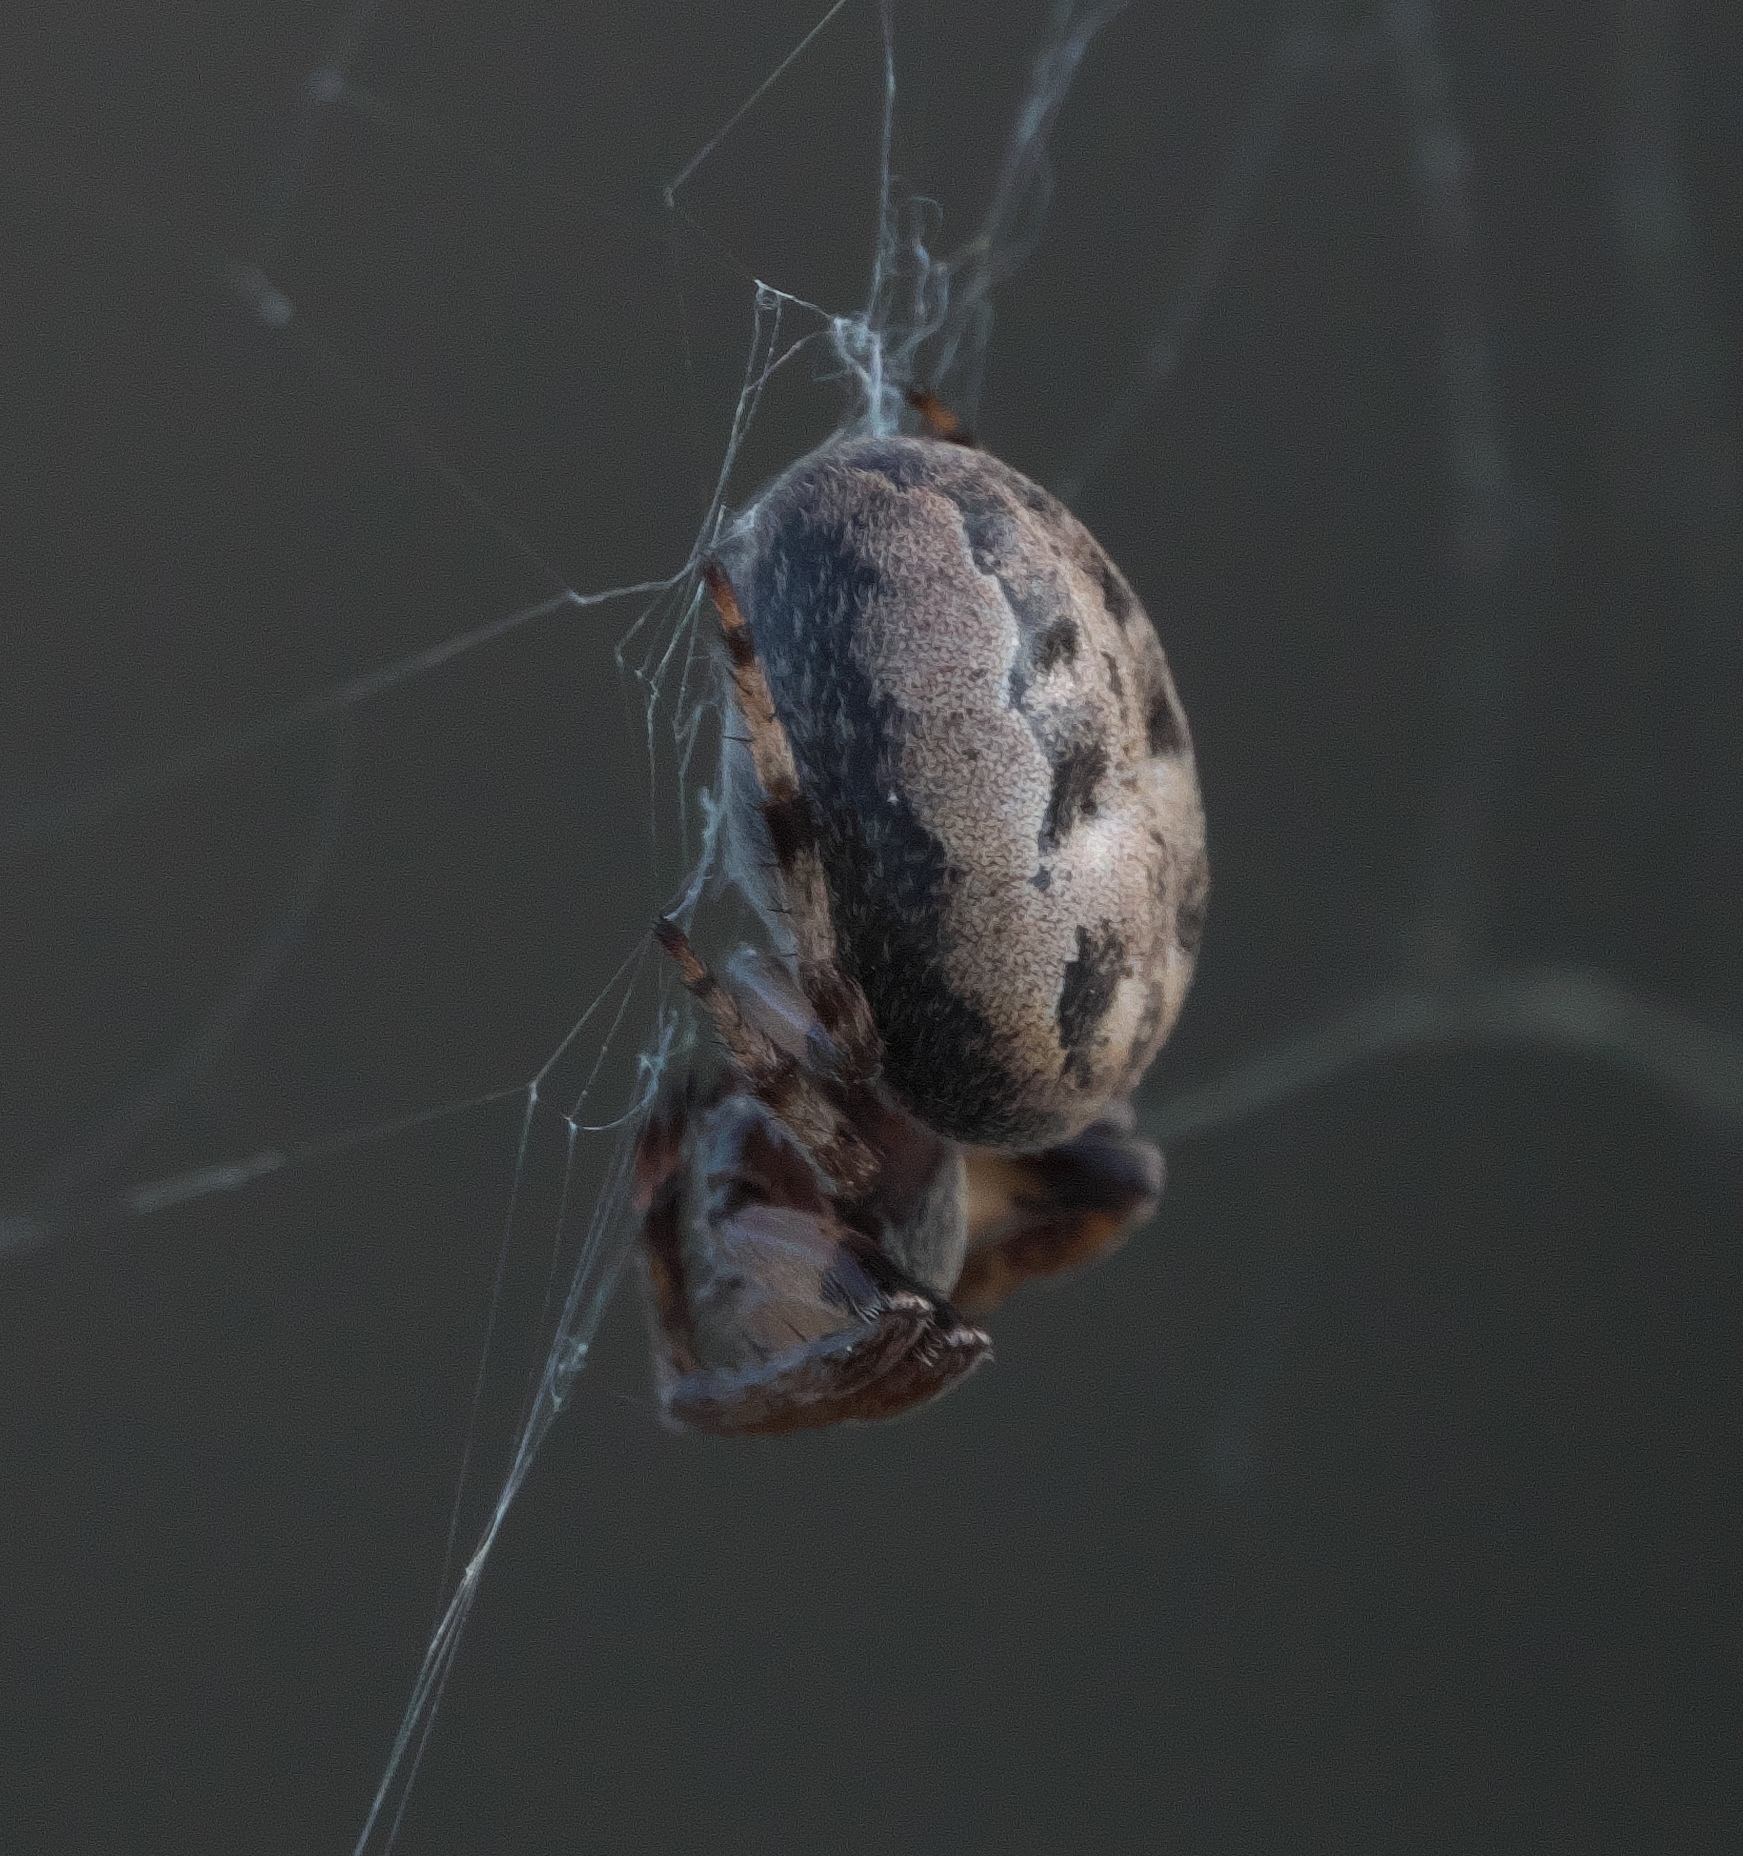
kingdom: Animalia
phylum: Arthropoda
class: Arachnida
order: Araneae
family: Araneidae
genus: Larinioides
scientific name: Larinioides cornutus
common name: Furrow orbweaver
